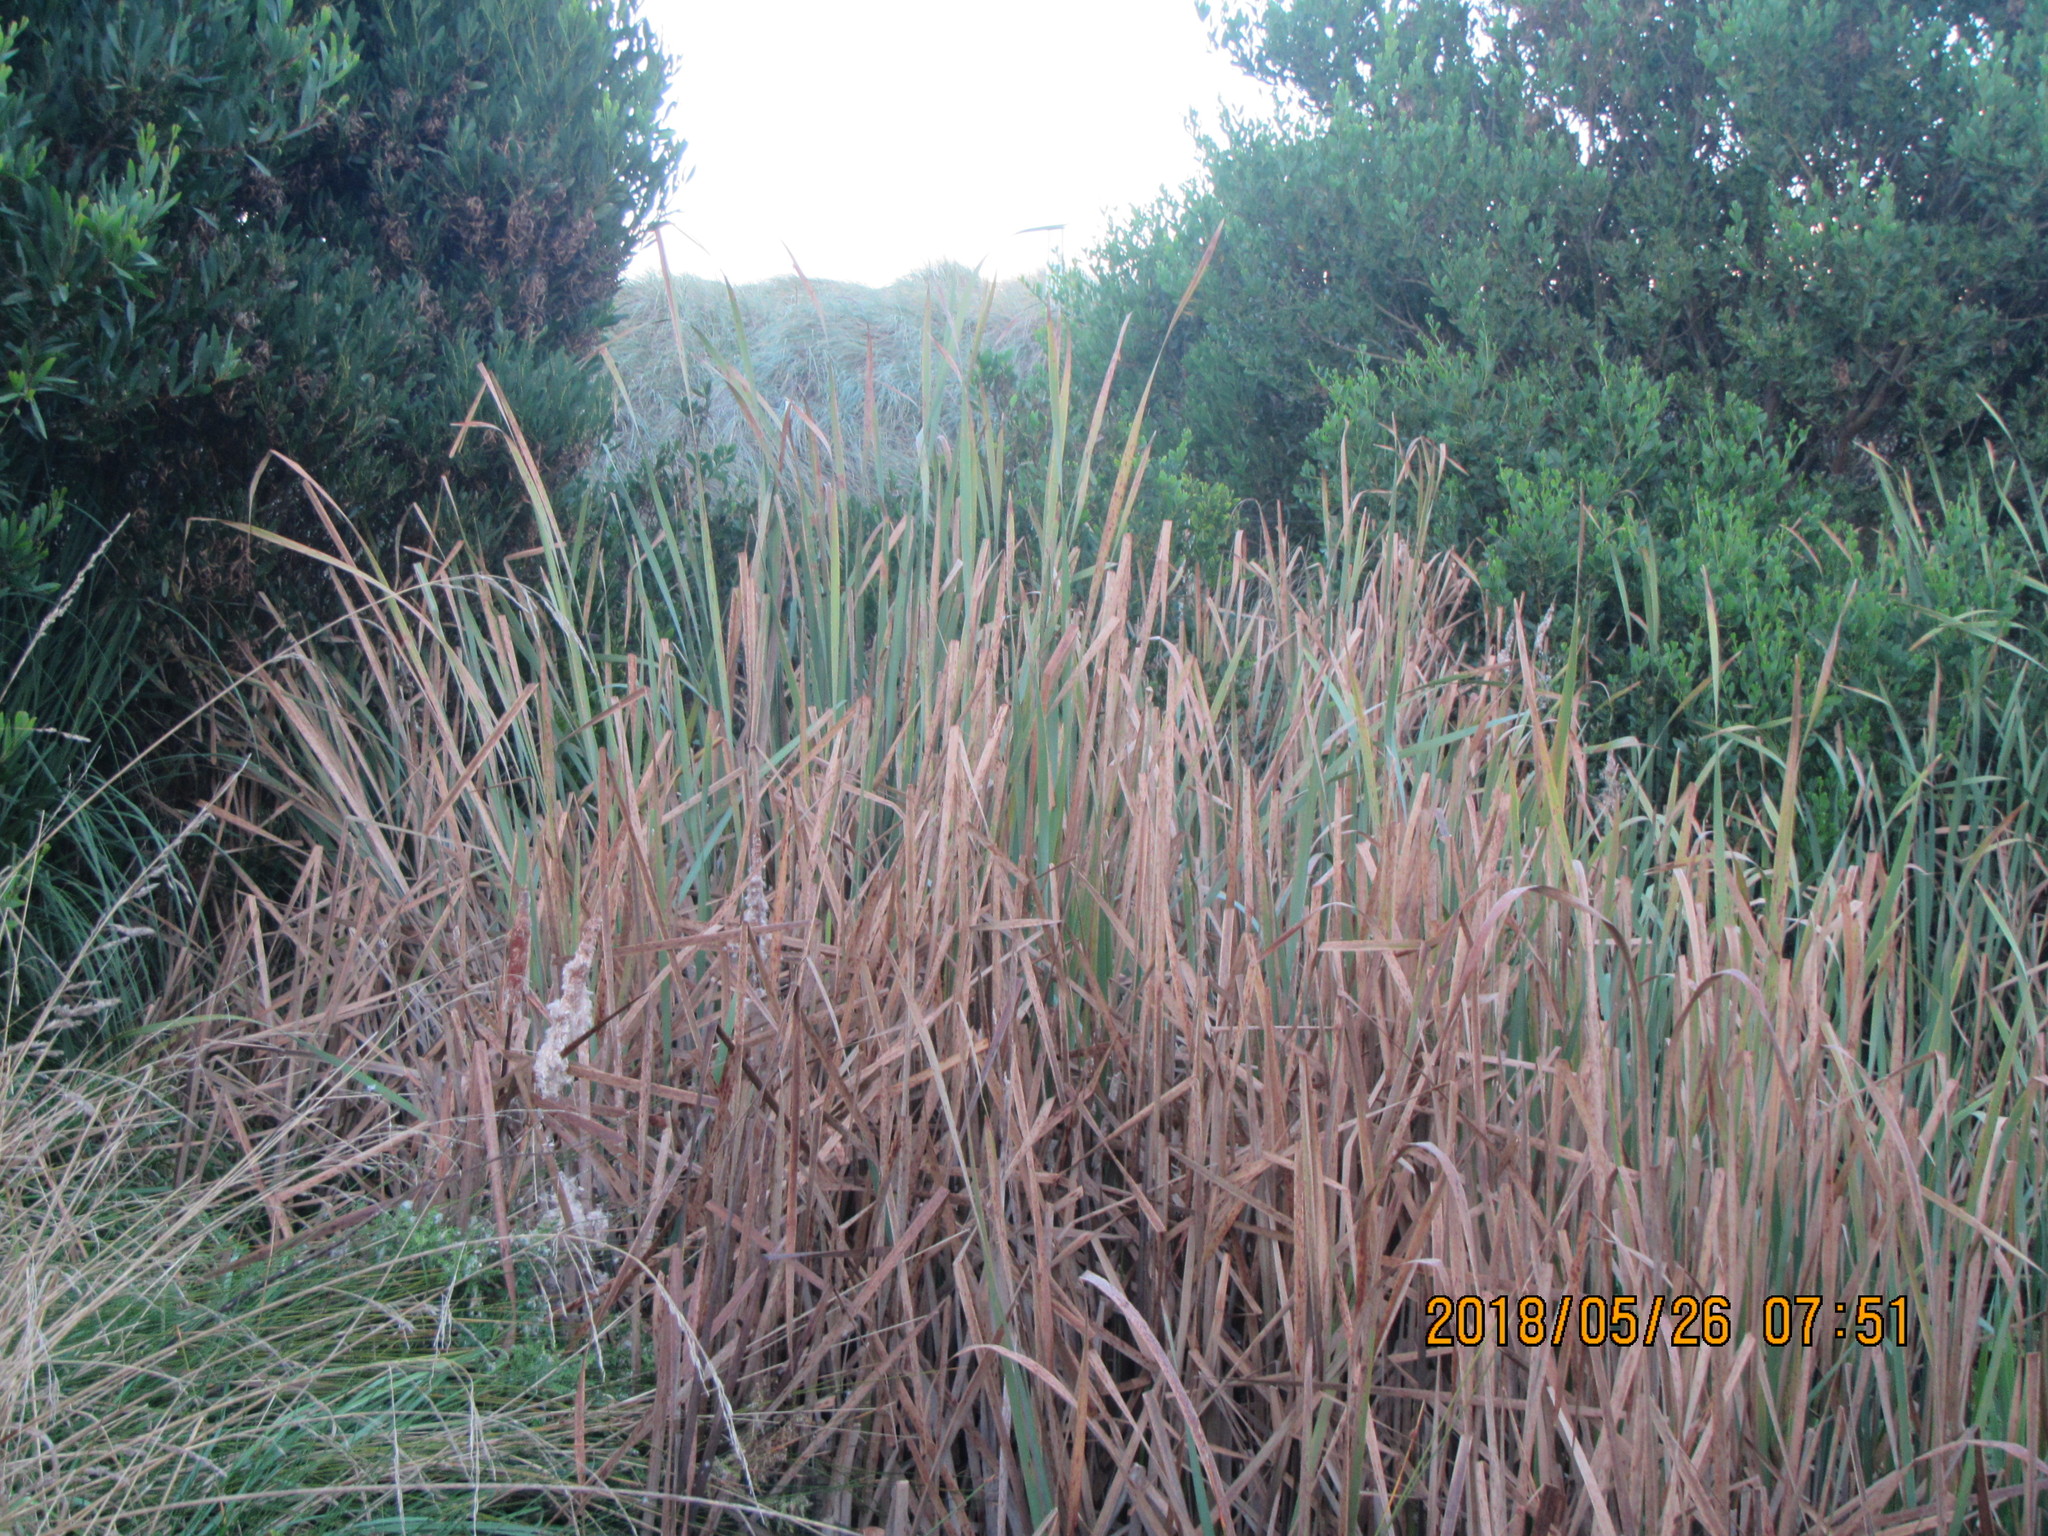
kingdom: Plantae
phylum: Tracheophyta
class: Liliopsida
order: Poales
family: Typhaceae
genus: Typha
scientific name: Typha orientalis
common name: Bullrush
